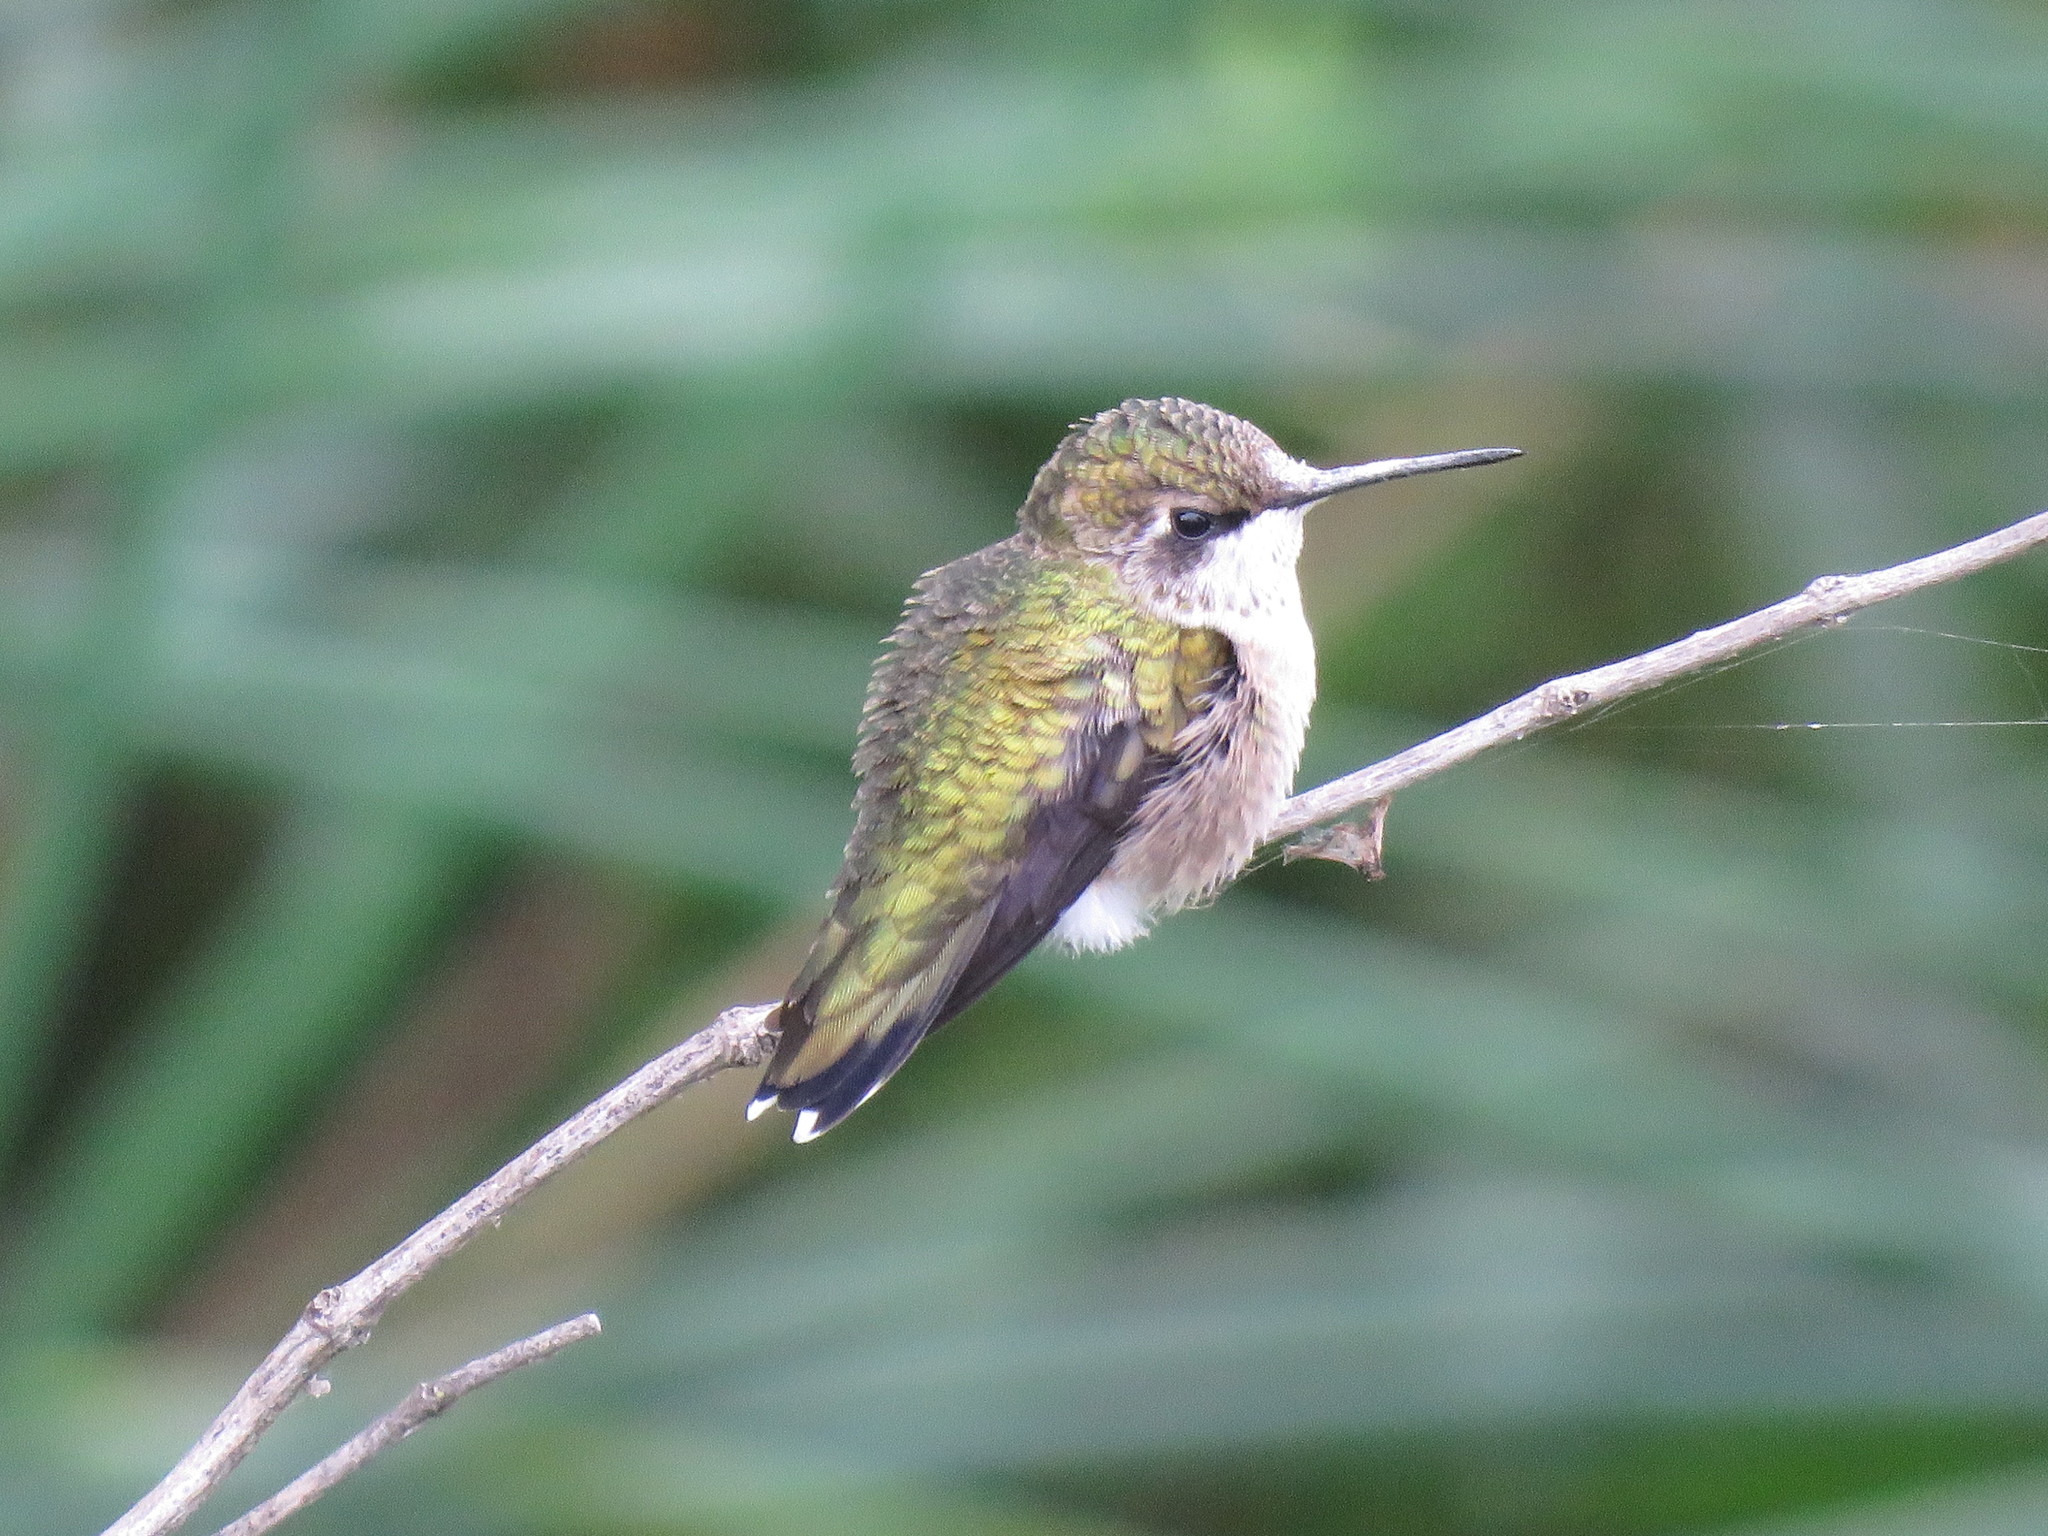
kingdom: Animalia
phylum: Chordata
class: Aves
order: Apodiformes
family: Trochilidae
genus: Archilochus
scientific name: Archilochus colubris
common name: Ruby-throated hummingbird
